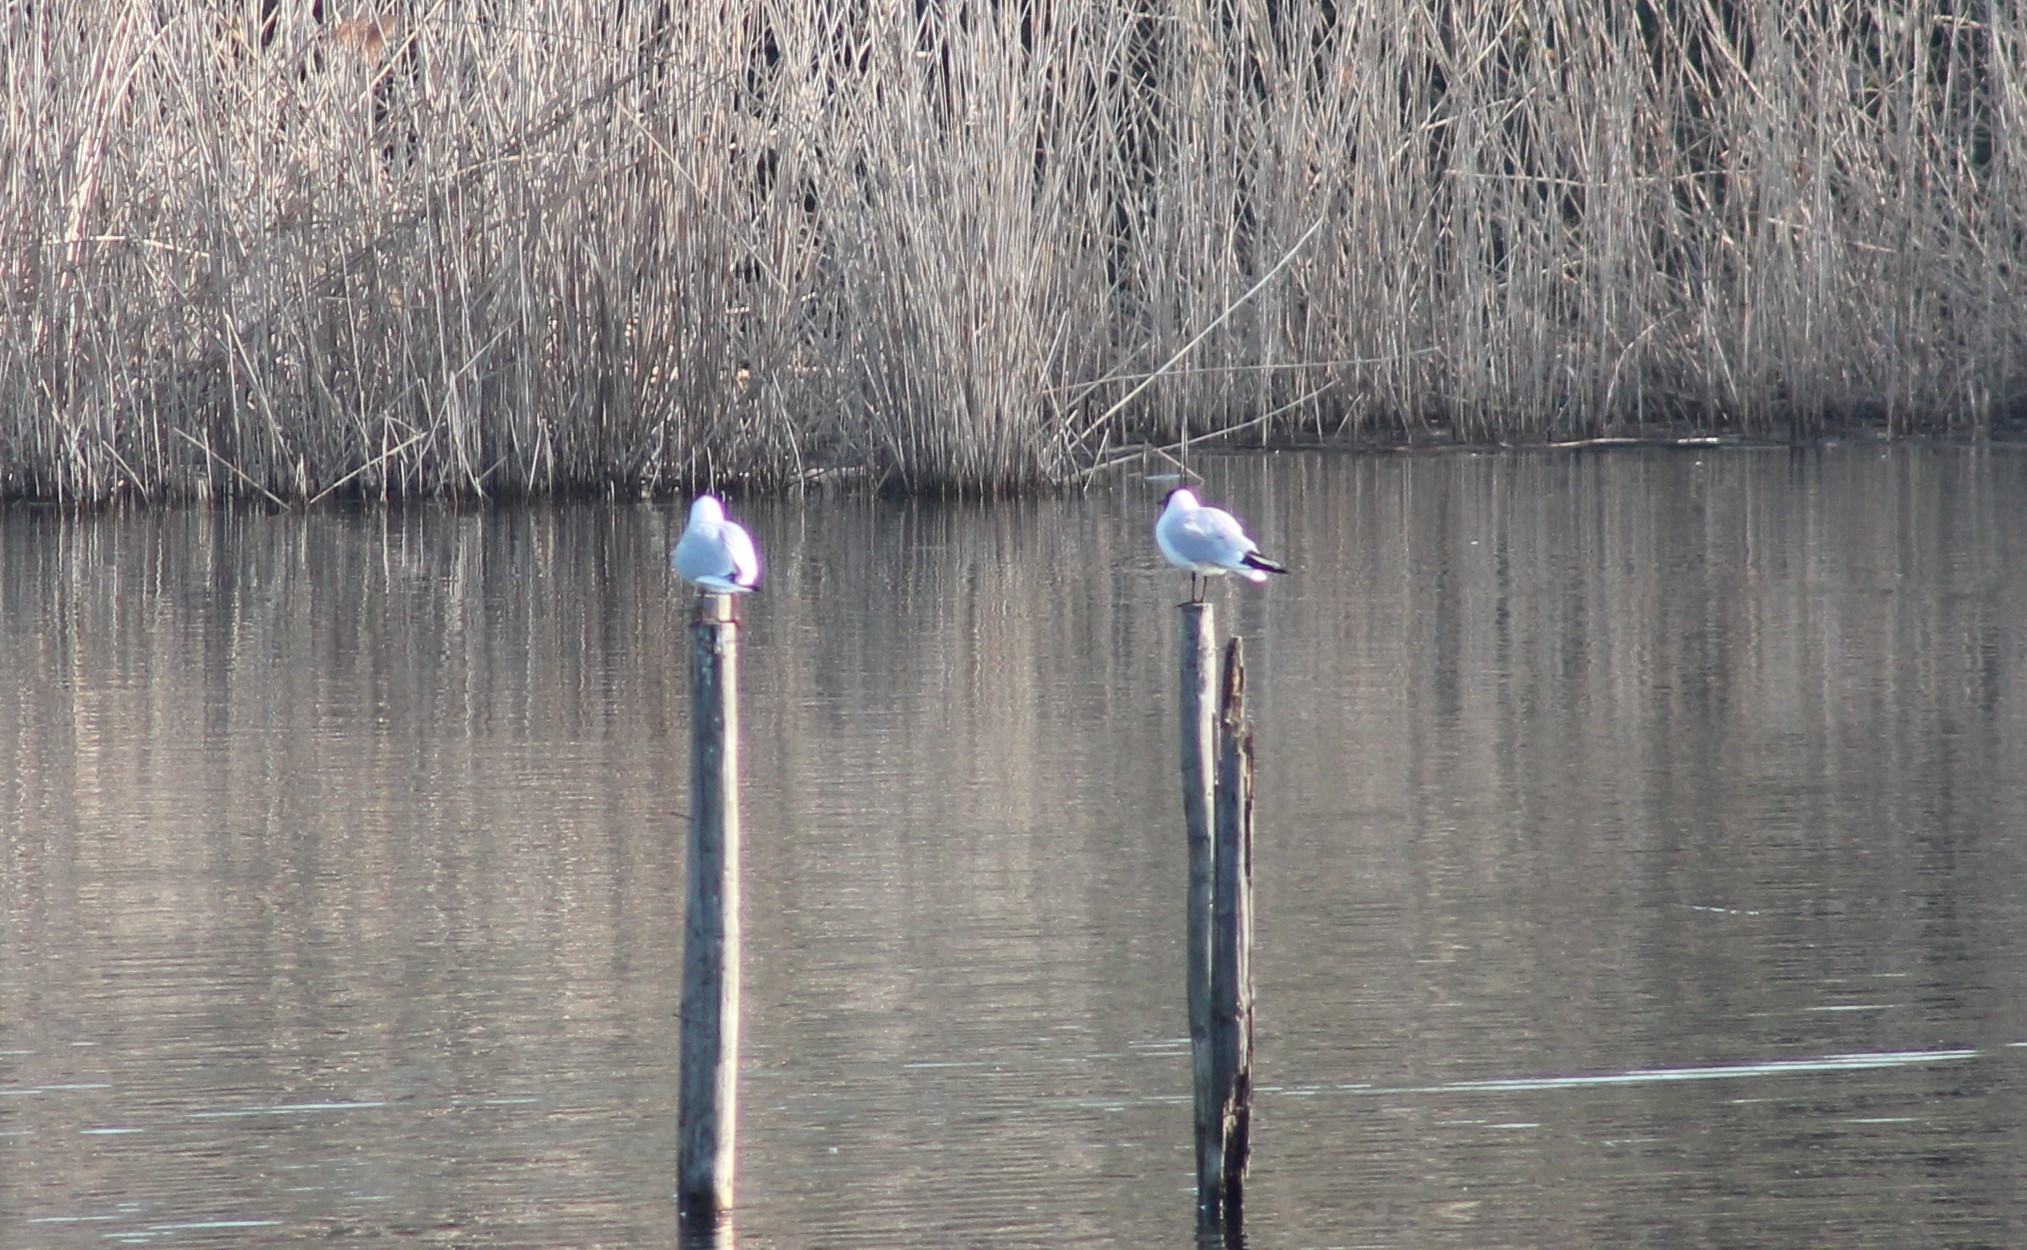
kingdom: Animalia
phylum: Chordata
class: Aves
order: Charadriiformes
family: Laridae
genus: Chroicocephalus
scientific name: Chroicocephalus ridibundus
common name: Black-headed gull
